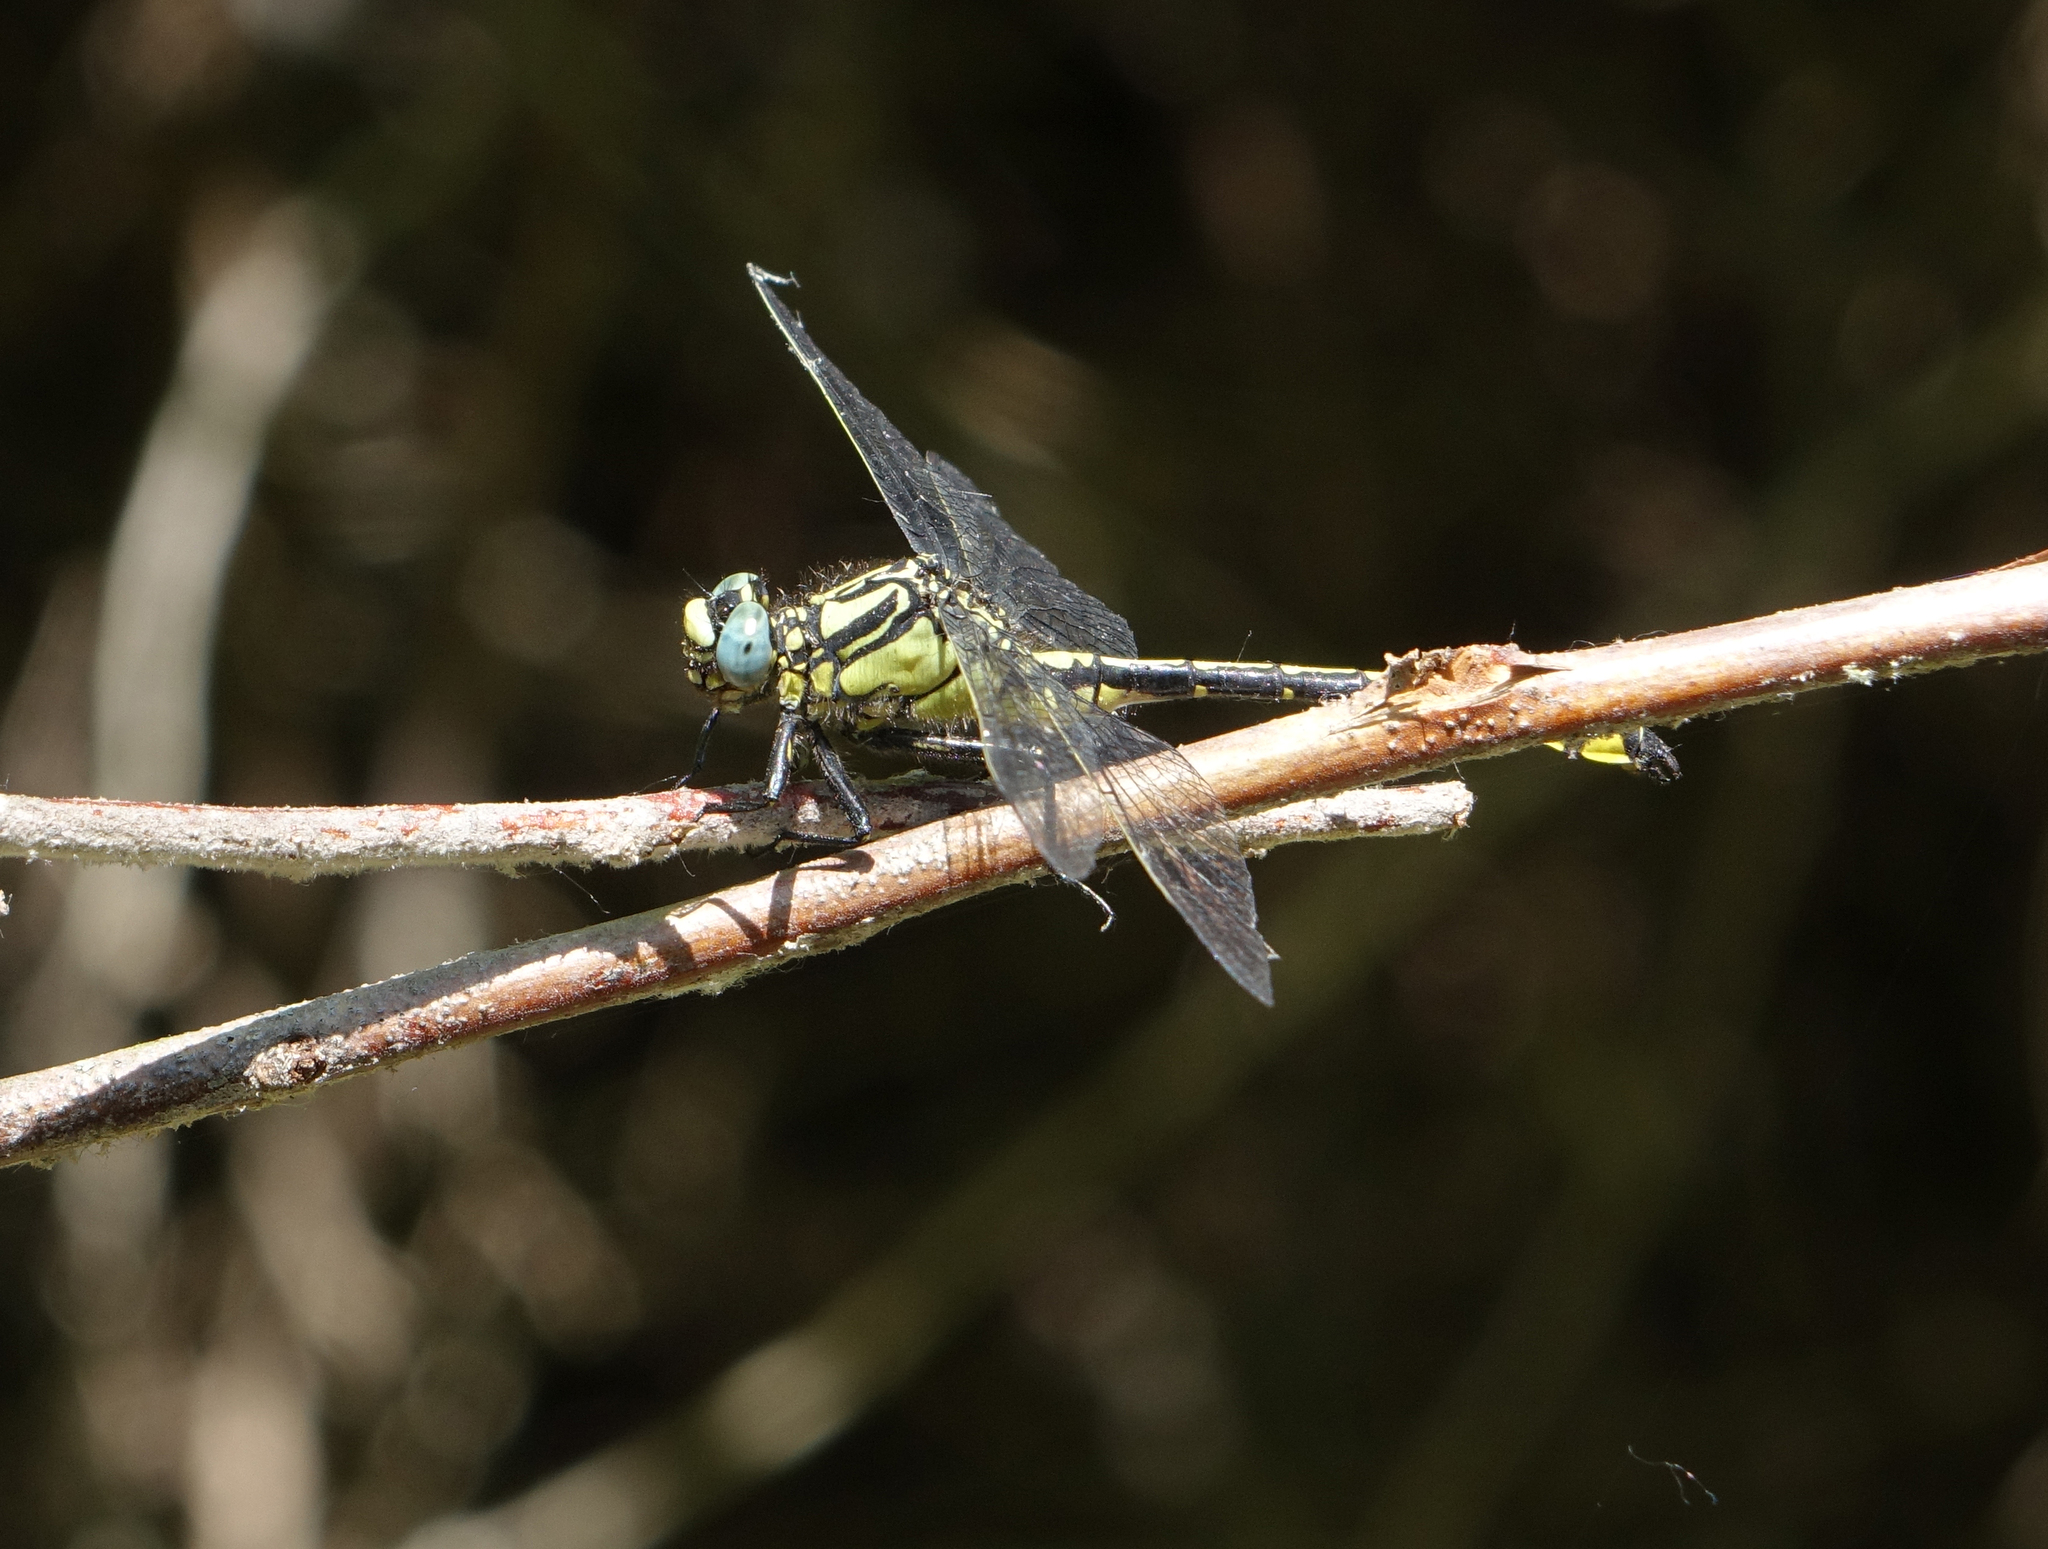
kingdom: Animalia
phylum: Arthropoda
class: Insecta
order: Odonata
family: Gomphidae
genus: Gomphus
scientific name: Gomphus schneiderii
